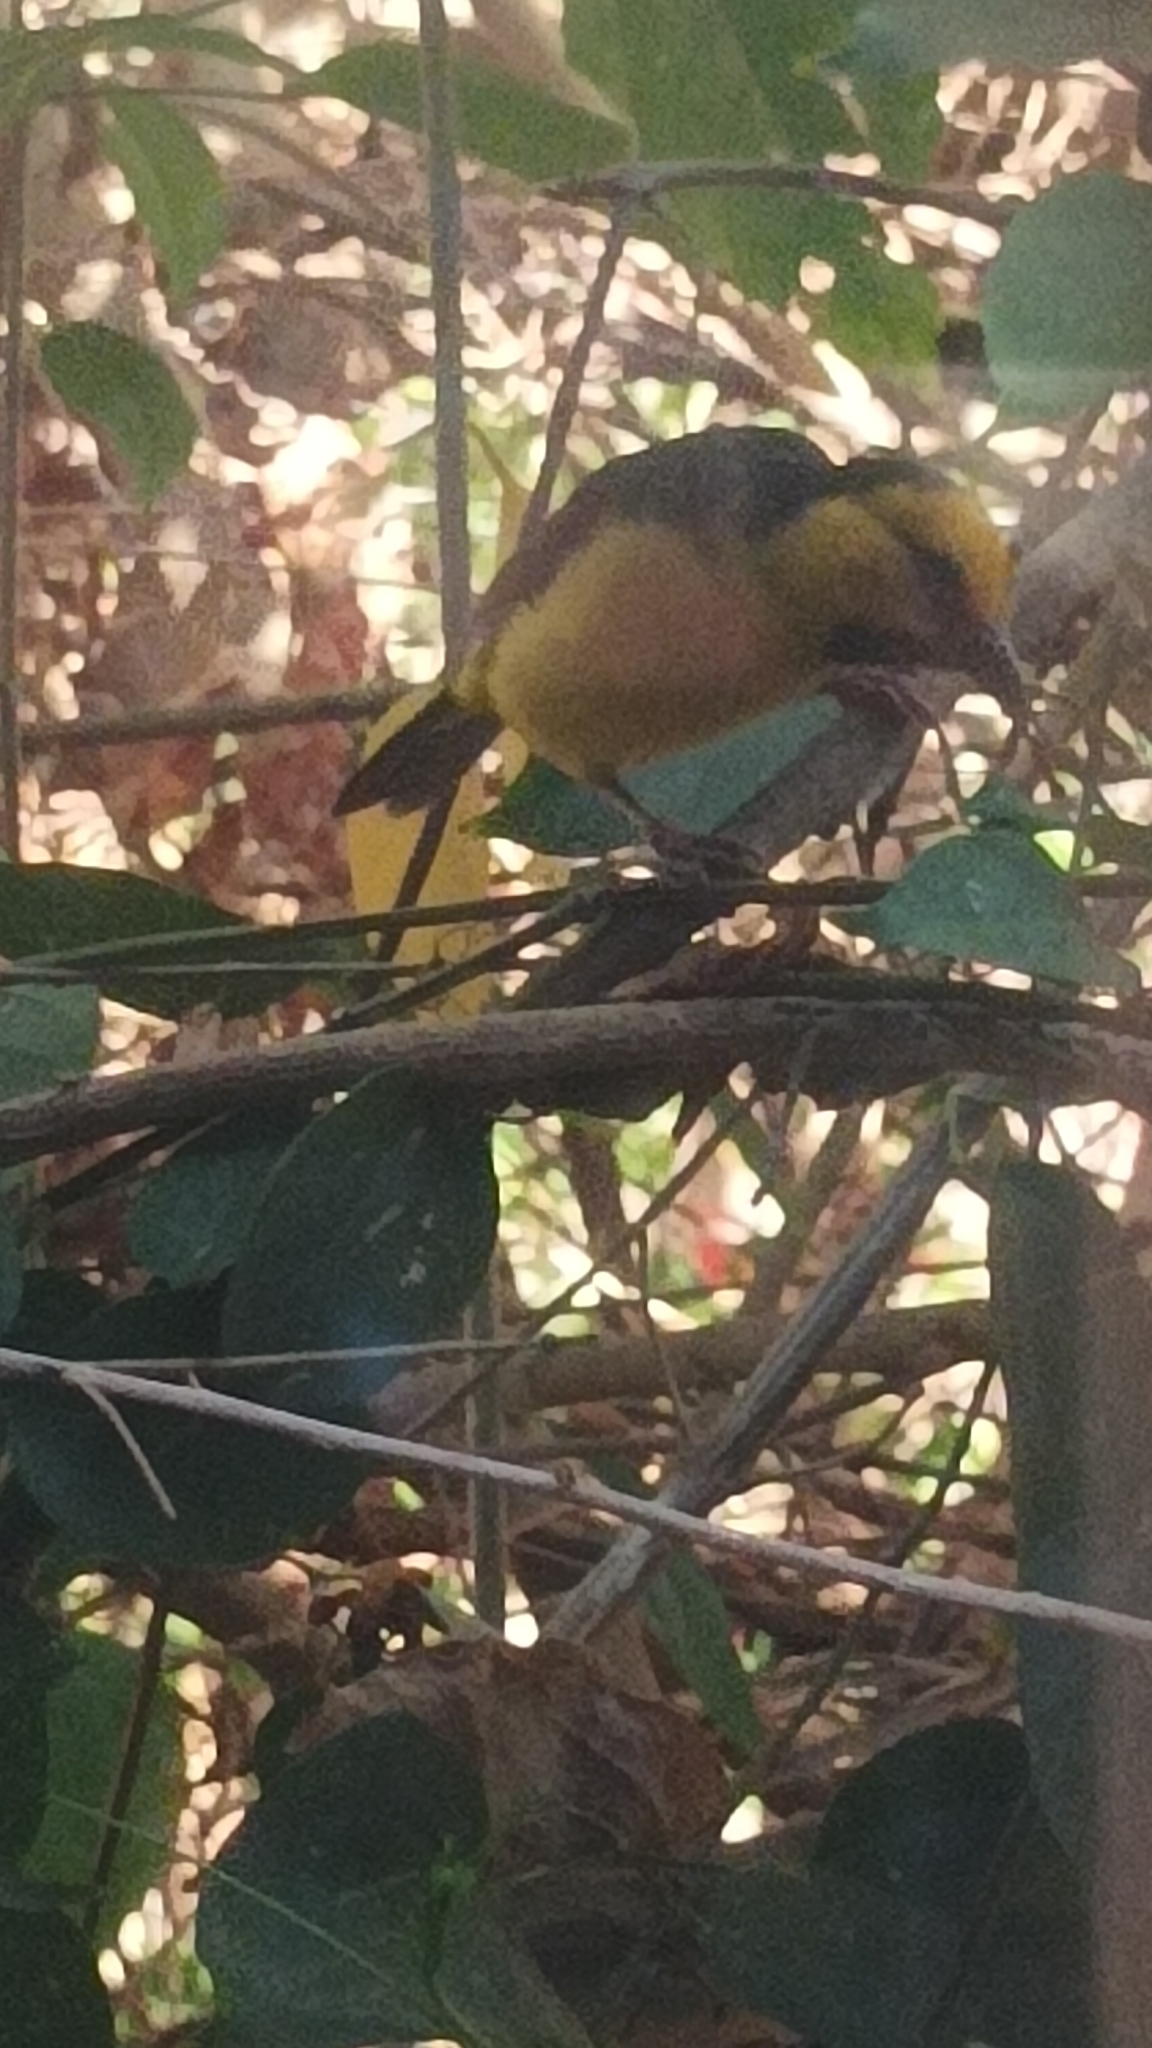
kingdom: Animalia
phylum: Chordata
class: Aves
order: Passeriformes
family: Ploceidae
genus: Ploceus
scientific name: Ploceus nigricollis
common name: Black-necked weaver
